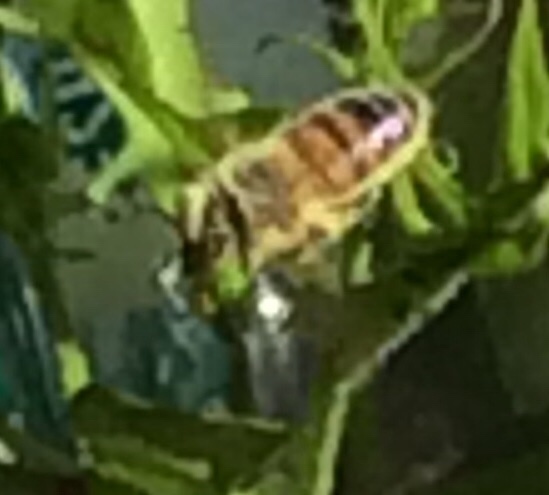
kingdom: Animalia
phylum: Arthropoda
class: Insecta
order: Hymenoptera
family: Apidae
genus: Apis
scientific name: Apis mellifera
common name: Honey bee
